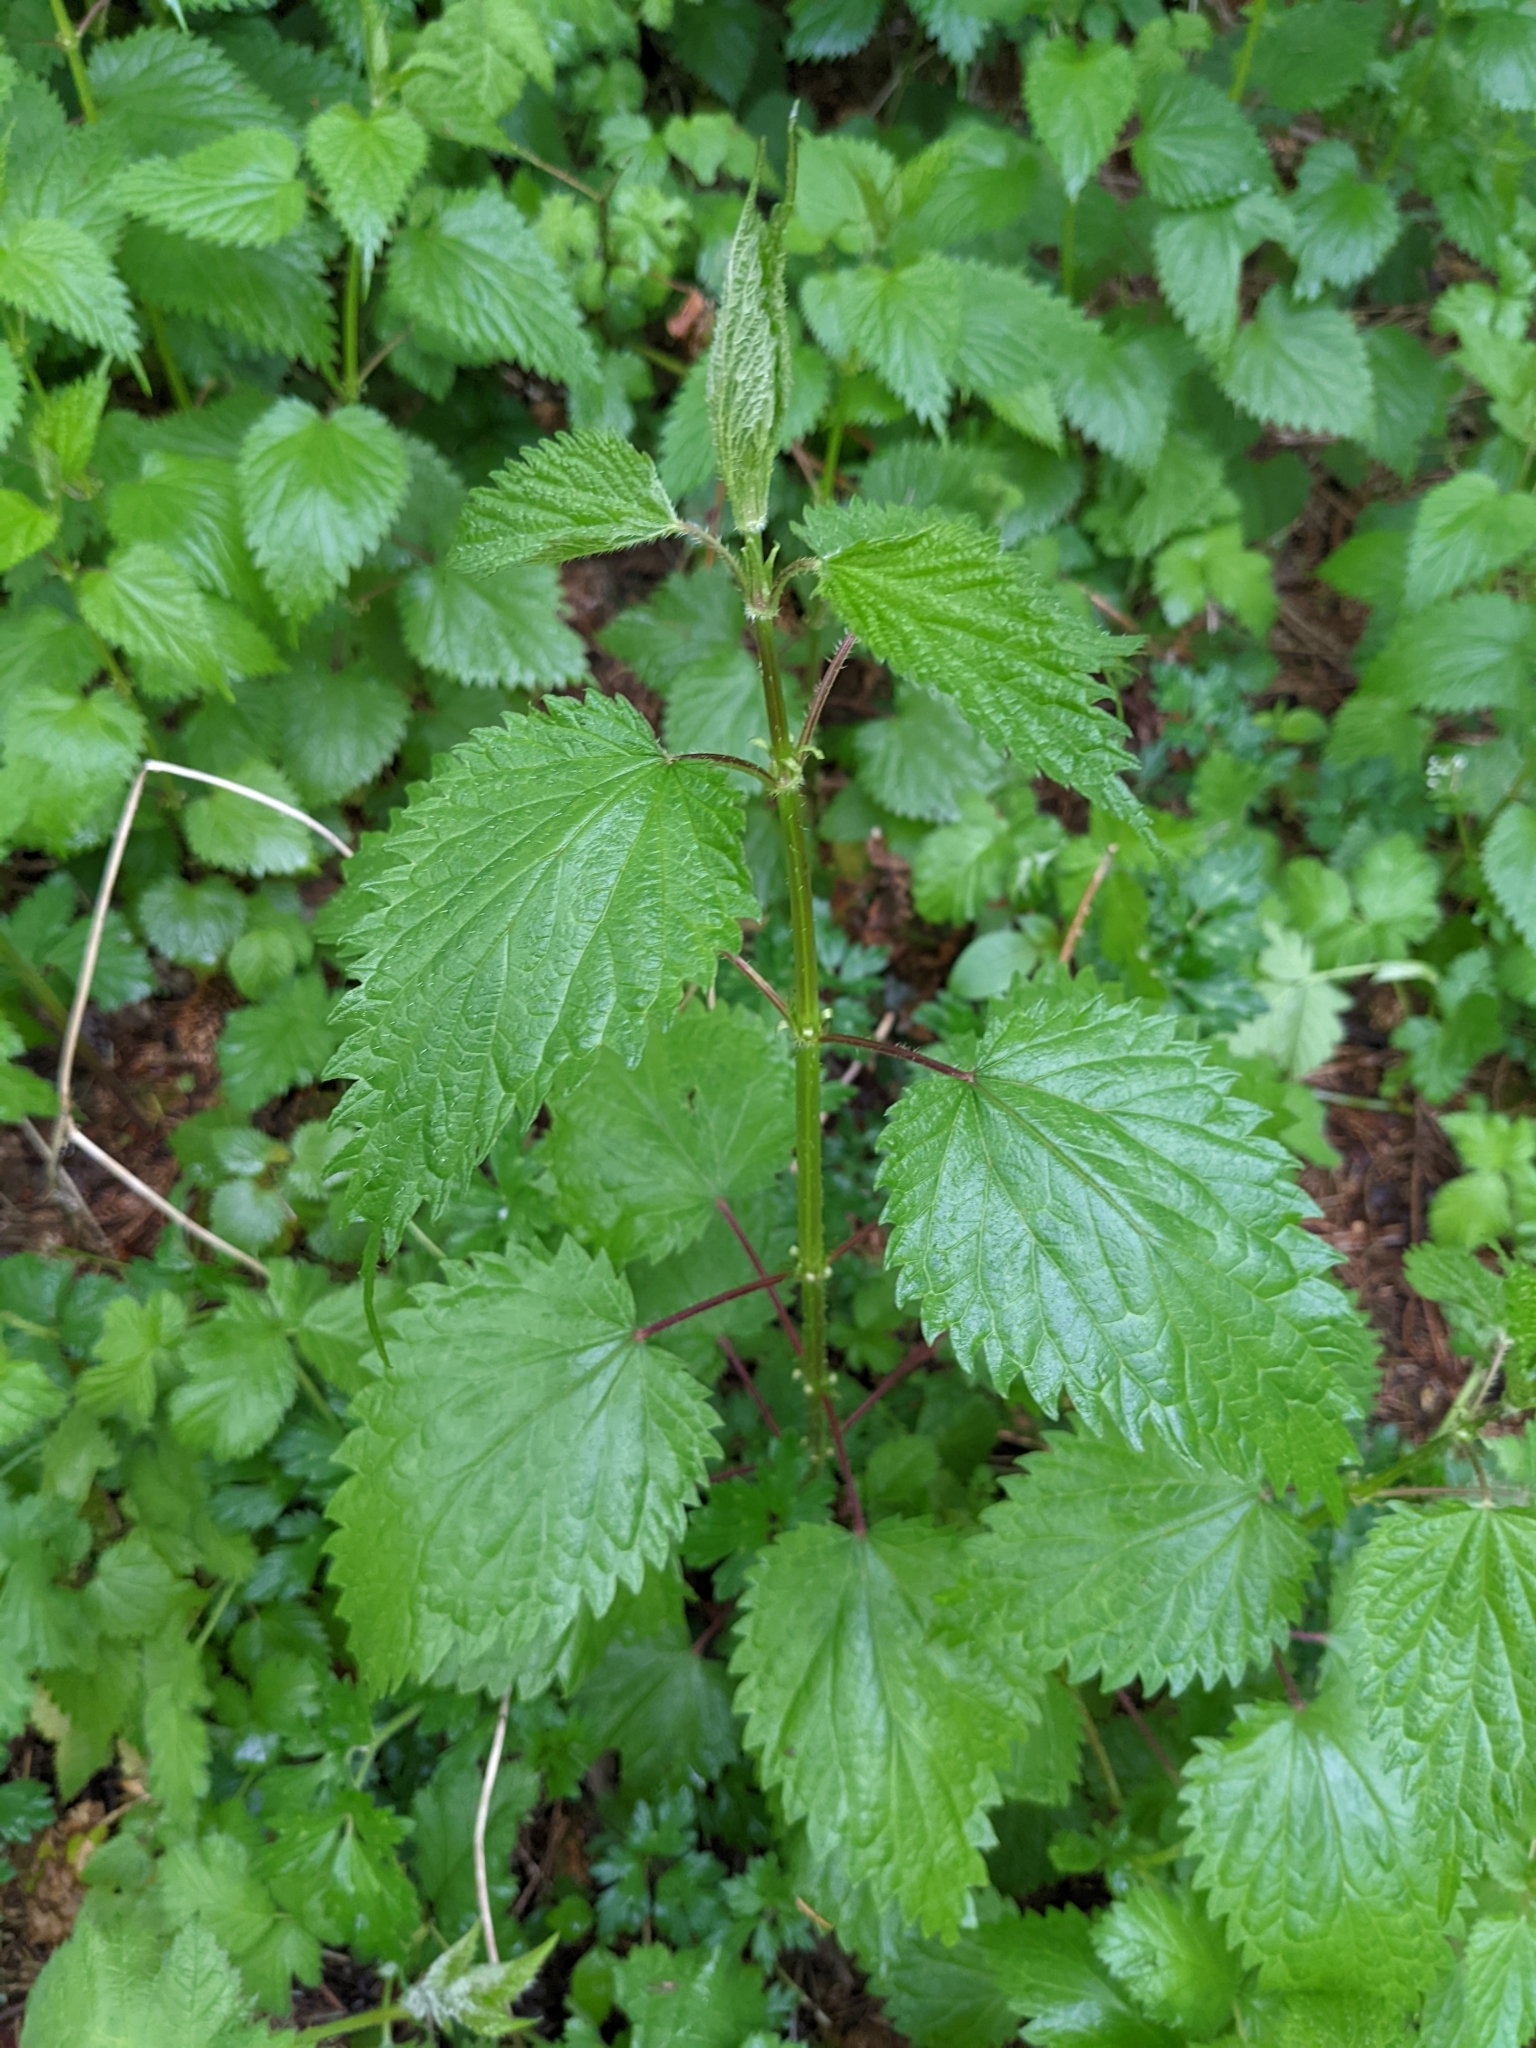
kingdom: Plantae
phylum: Tracheophyta
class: Magnoliopsida
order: Rosales
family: Urticaceae
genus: Urtica
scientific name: Urtica dioica
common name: Common nettle
